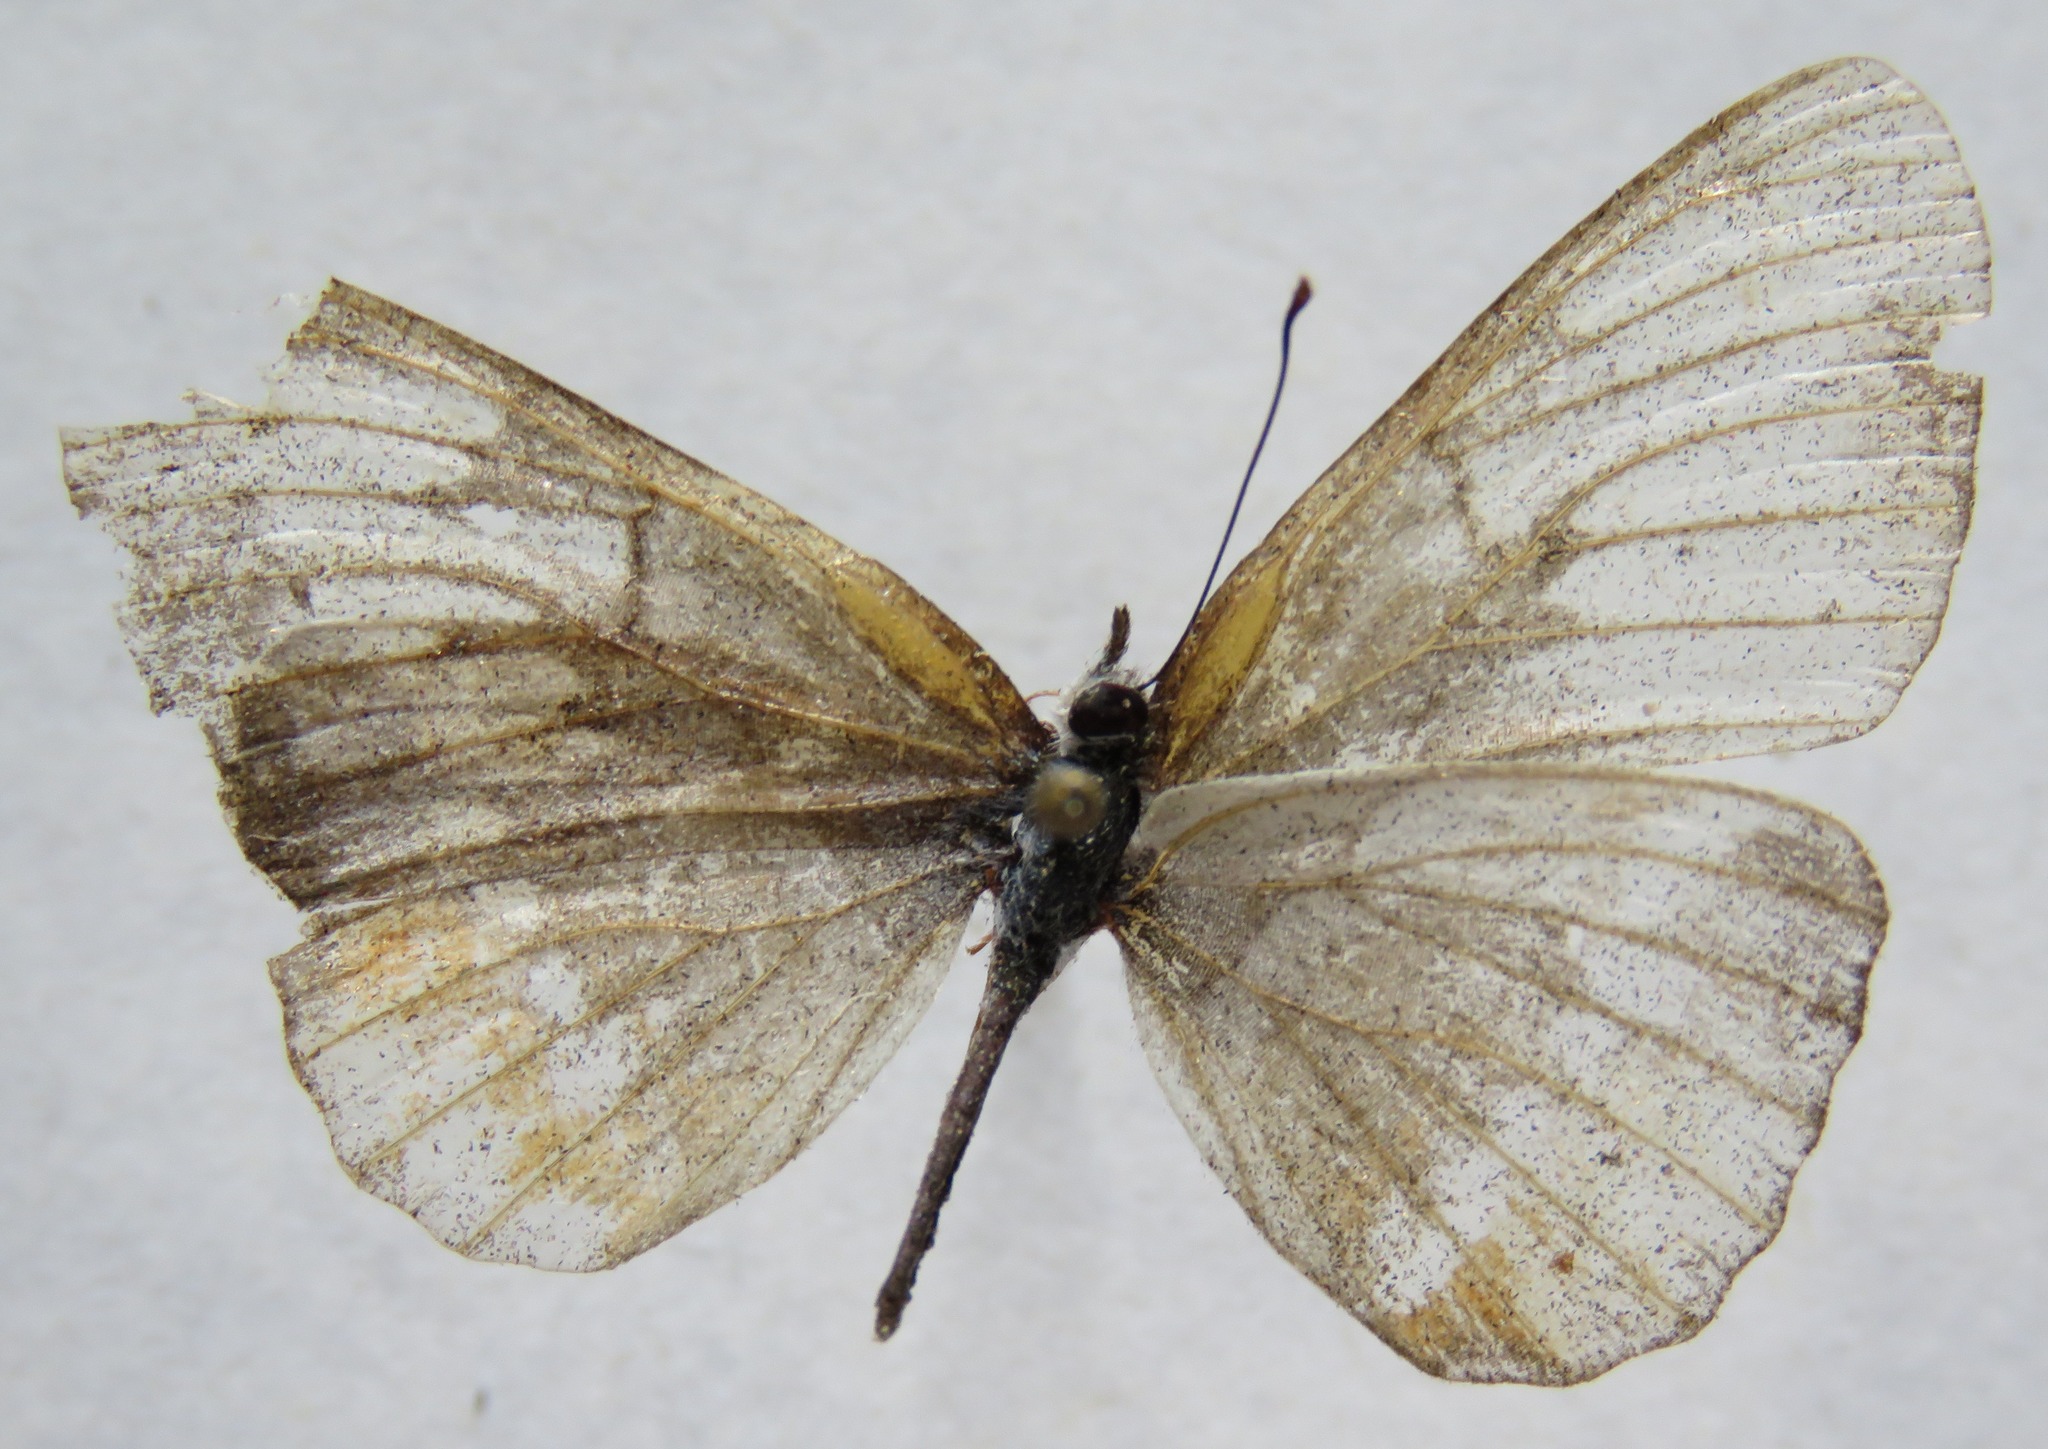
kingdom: Animalia
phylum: Arthropoda
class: Insecta
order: Lepidoptera
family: Nymphalidae
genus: Mestra
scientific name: Mestra amymone
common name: Common mestra
